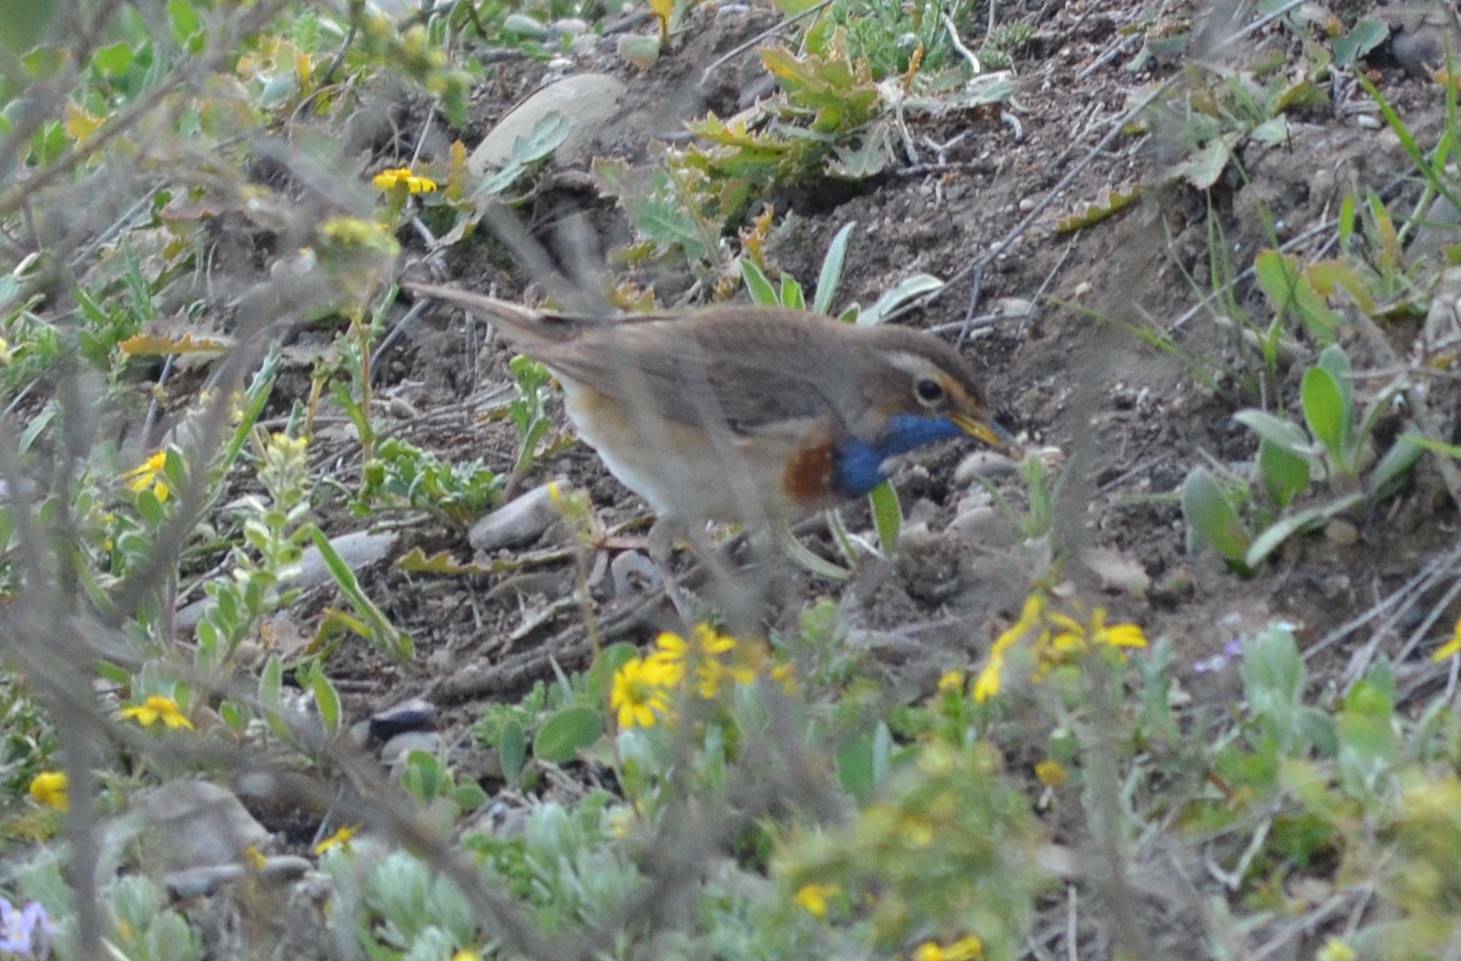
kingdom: Animalia
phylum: Chordata
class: Aves
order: Passeriformes
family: Muscicapidae
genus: Luscinia
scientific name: Luscinia svecica
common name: Bluethroat
